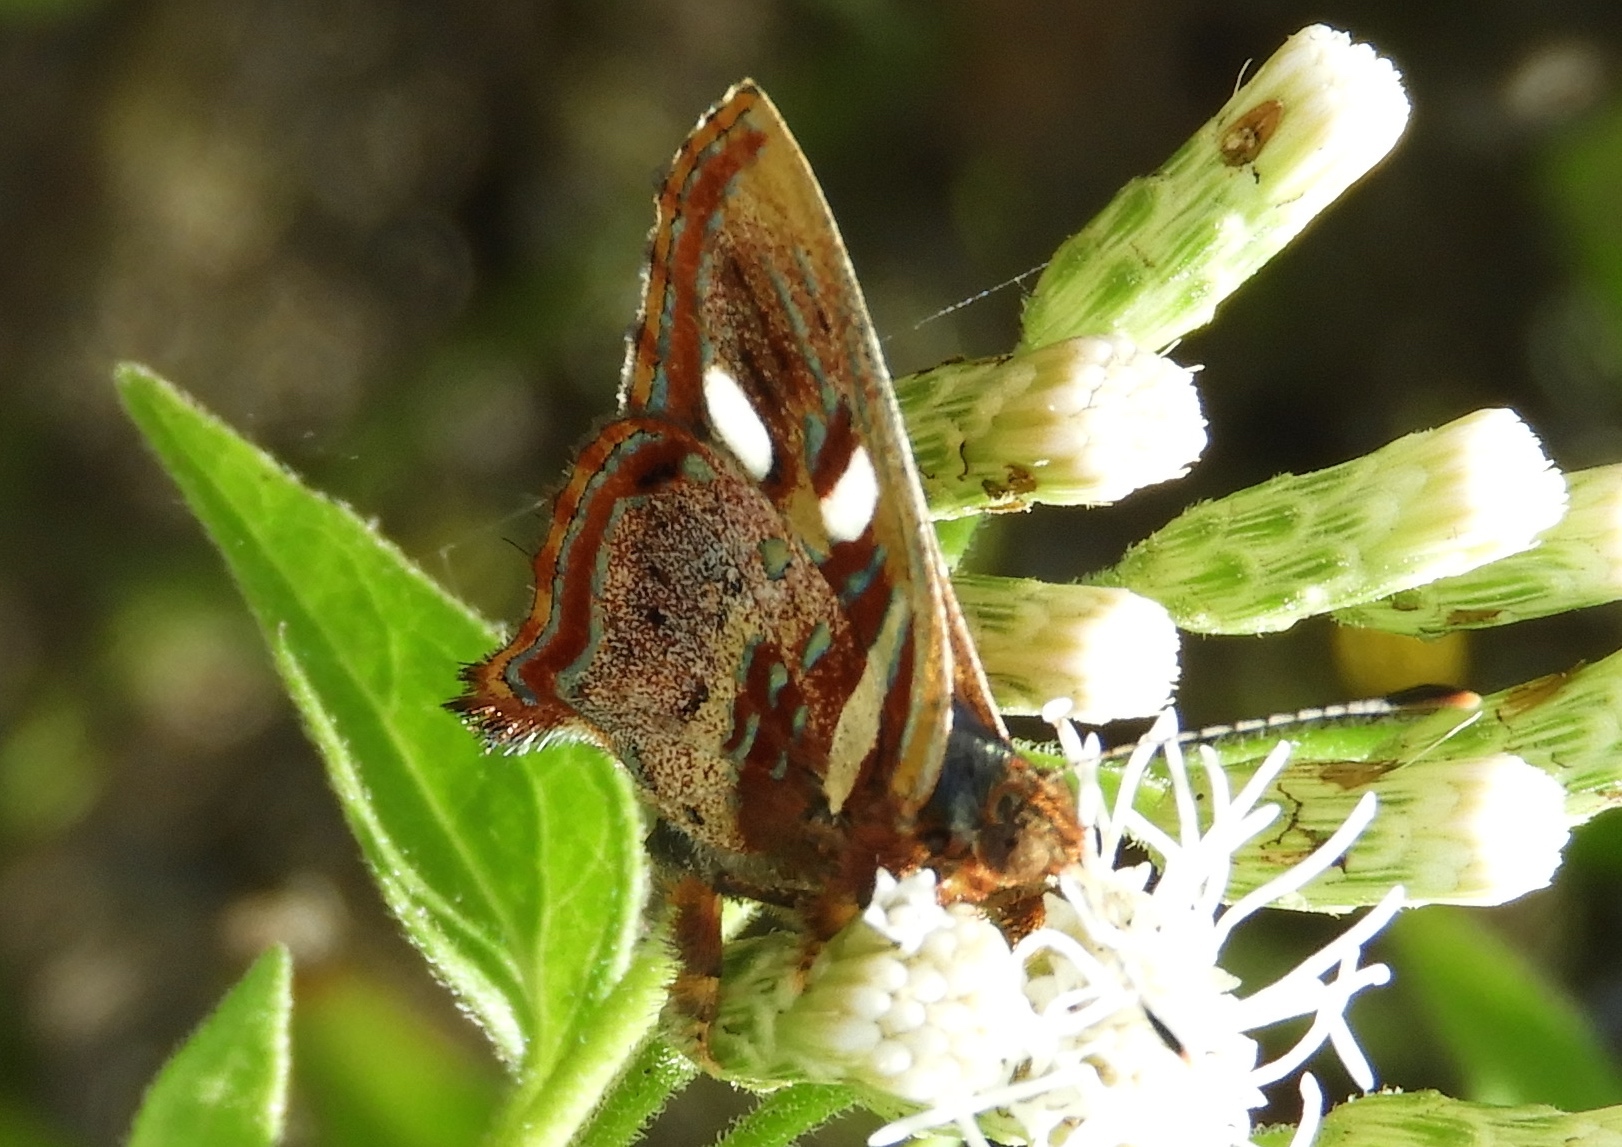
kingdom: Animalia
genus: Anteros
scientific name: Anteros carausius
